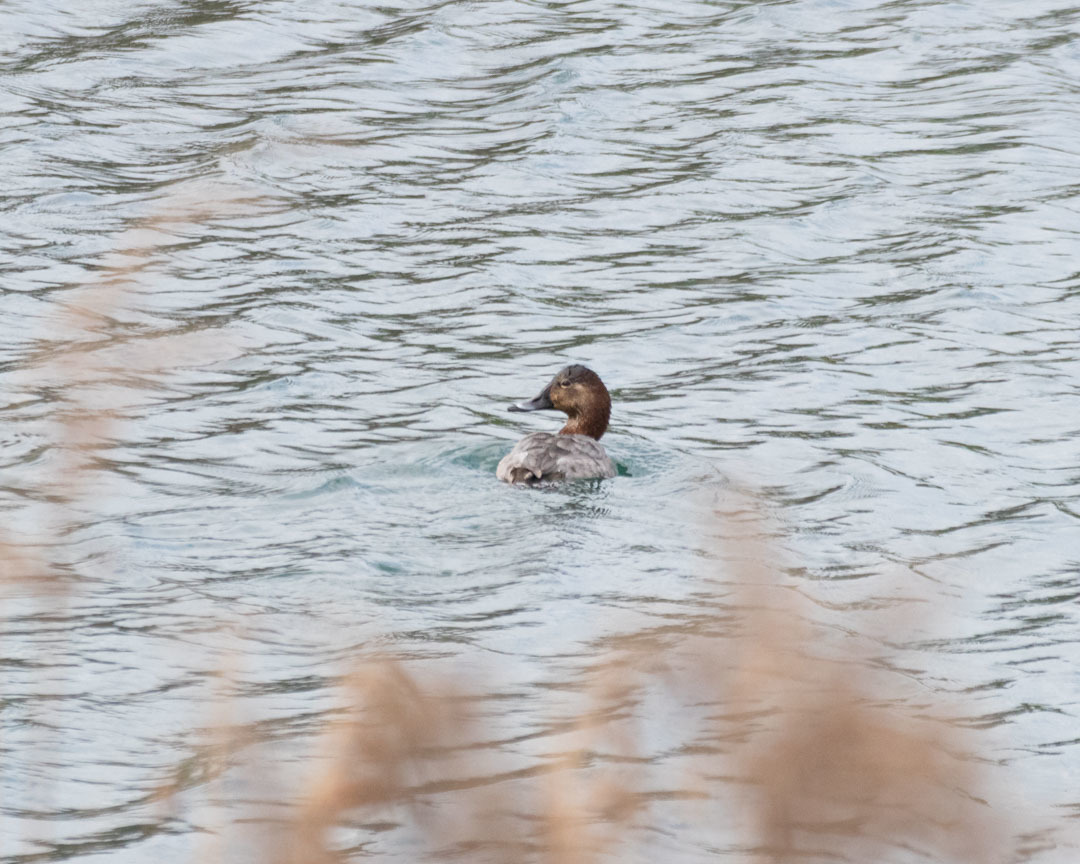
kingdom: Animalia
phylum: Chordata
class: Aves
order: Anseriformes
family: Anatidae
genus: Aythya
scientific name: Aythya ferina
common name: Common pochard
